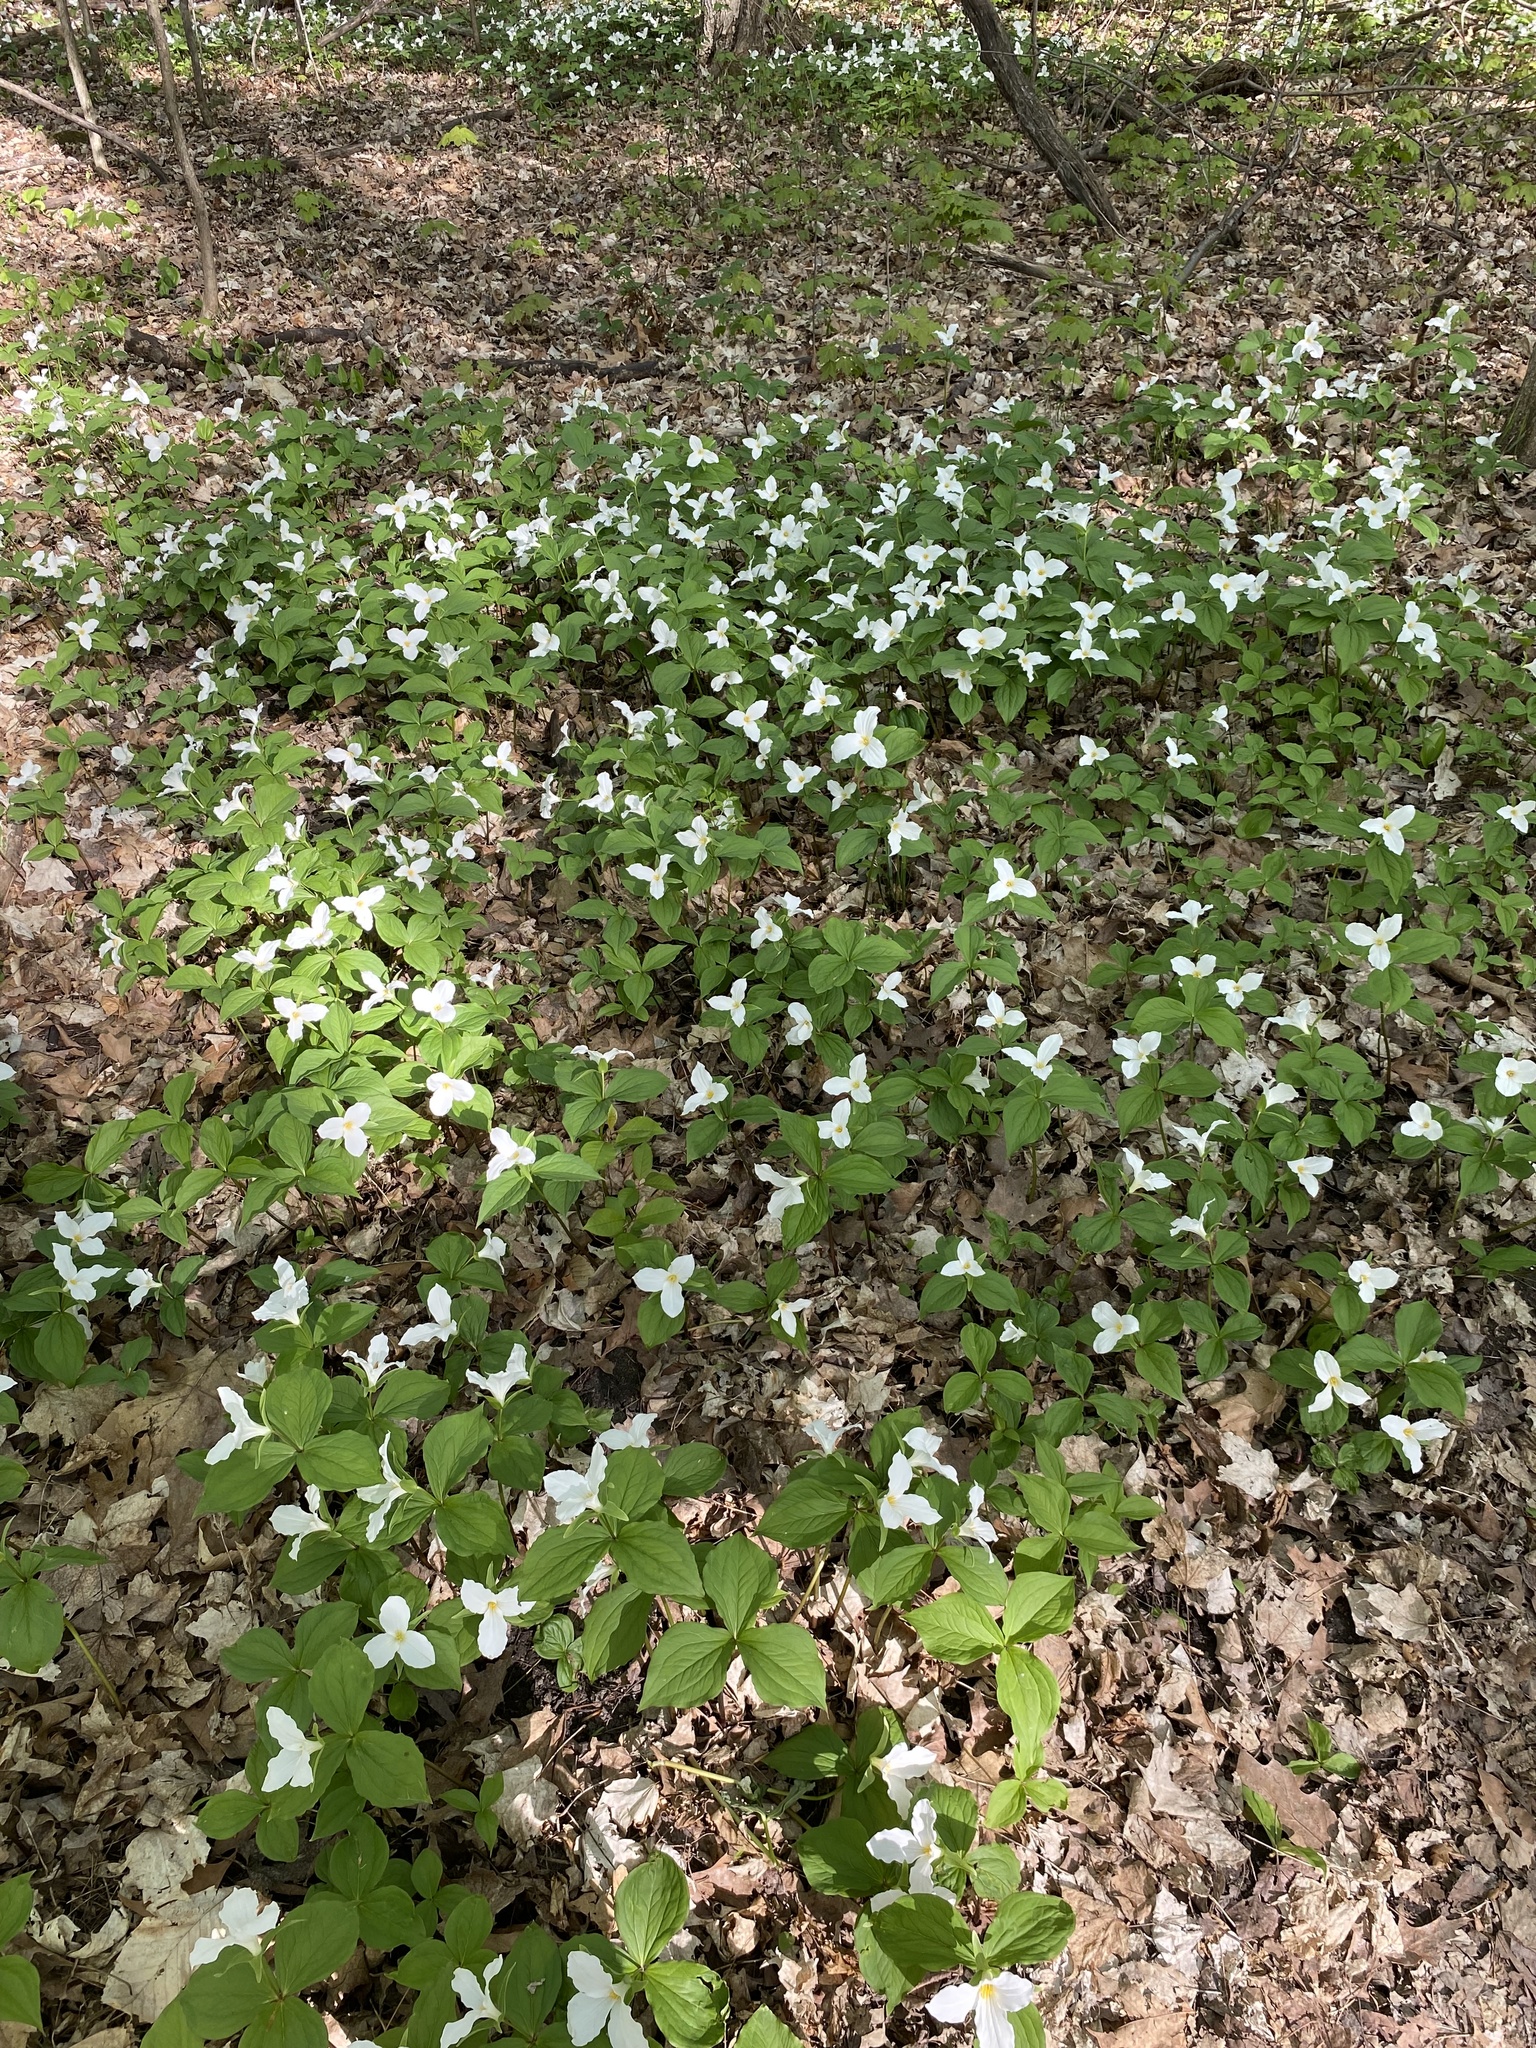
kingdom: Plantae
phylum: Tracheophyta
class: Liliopsida
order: Liliales
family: Melanthiaceae
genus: Trillium
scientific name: Trillium grandiflorum
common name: Great white trillium
